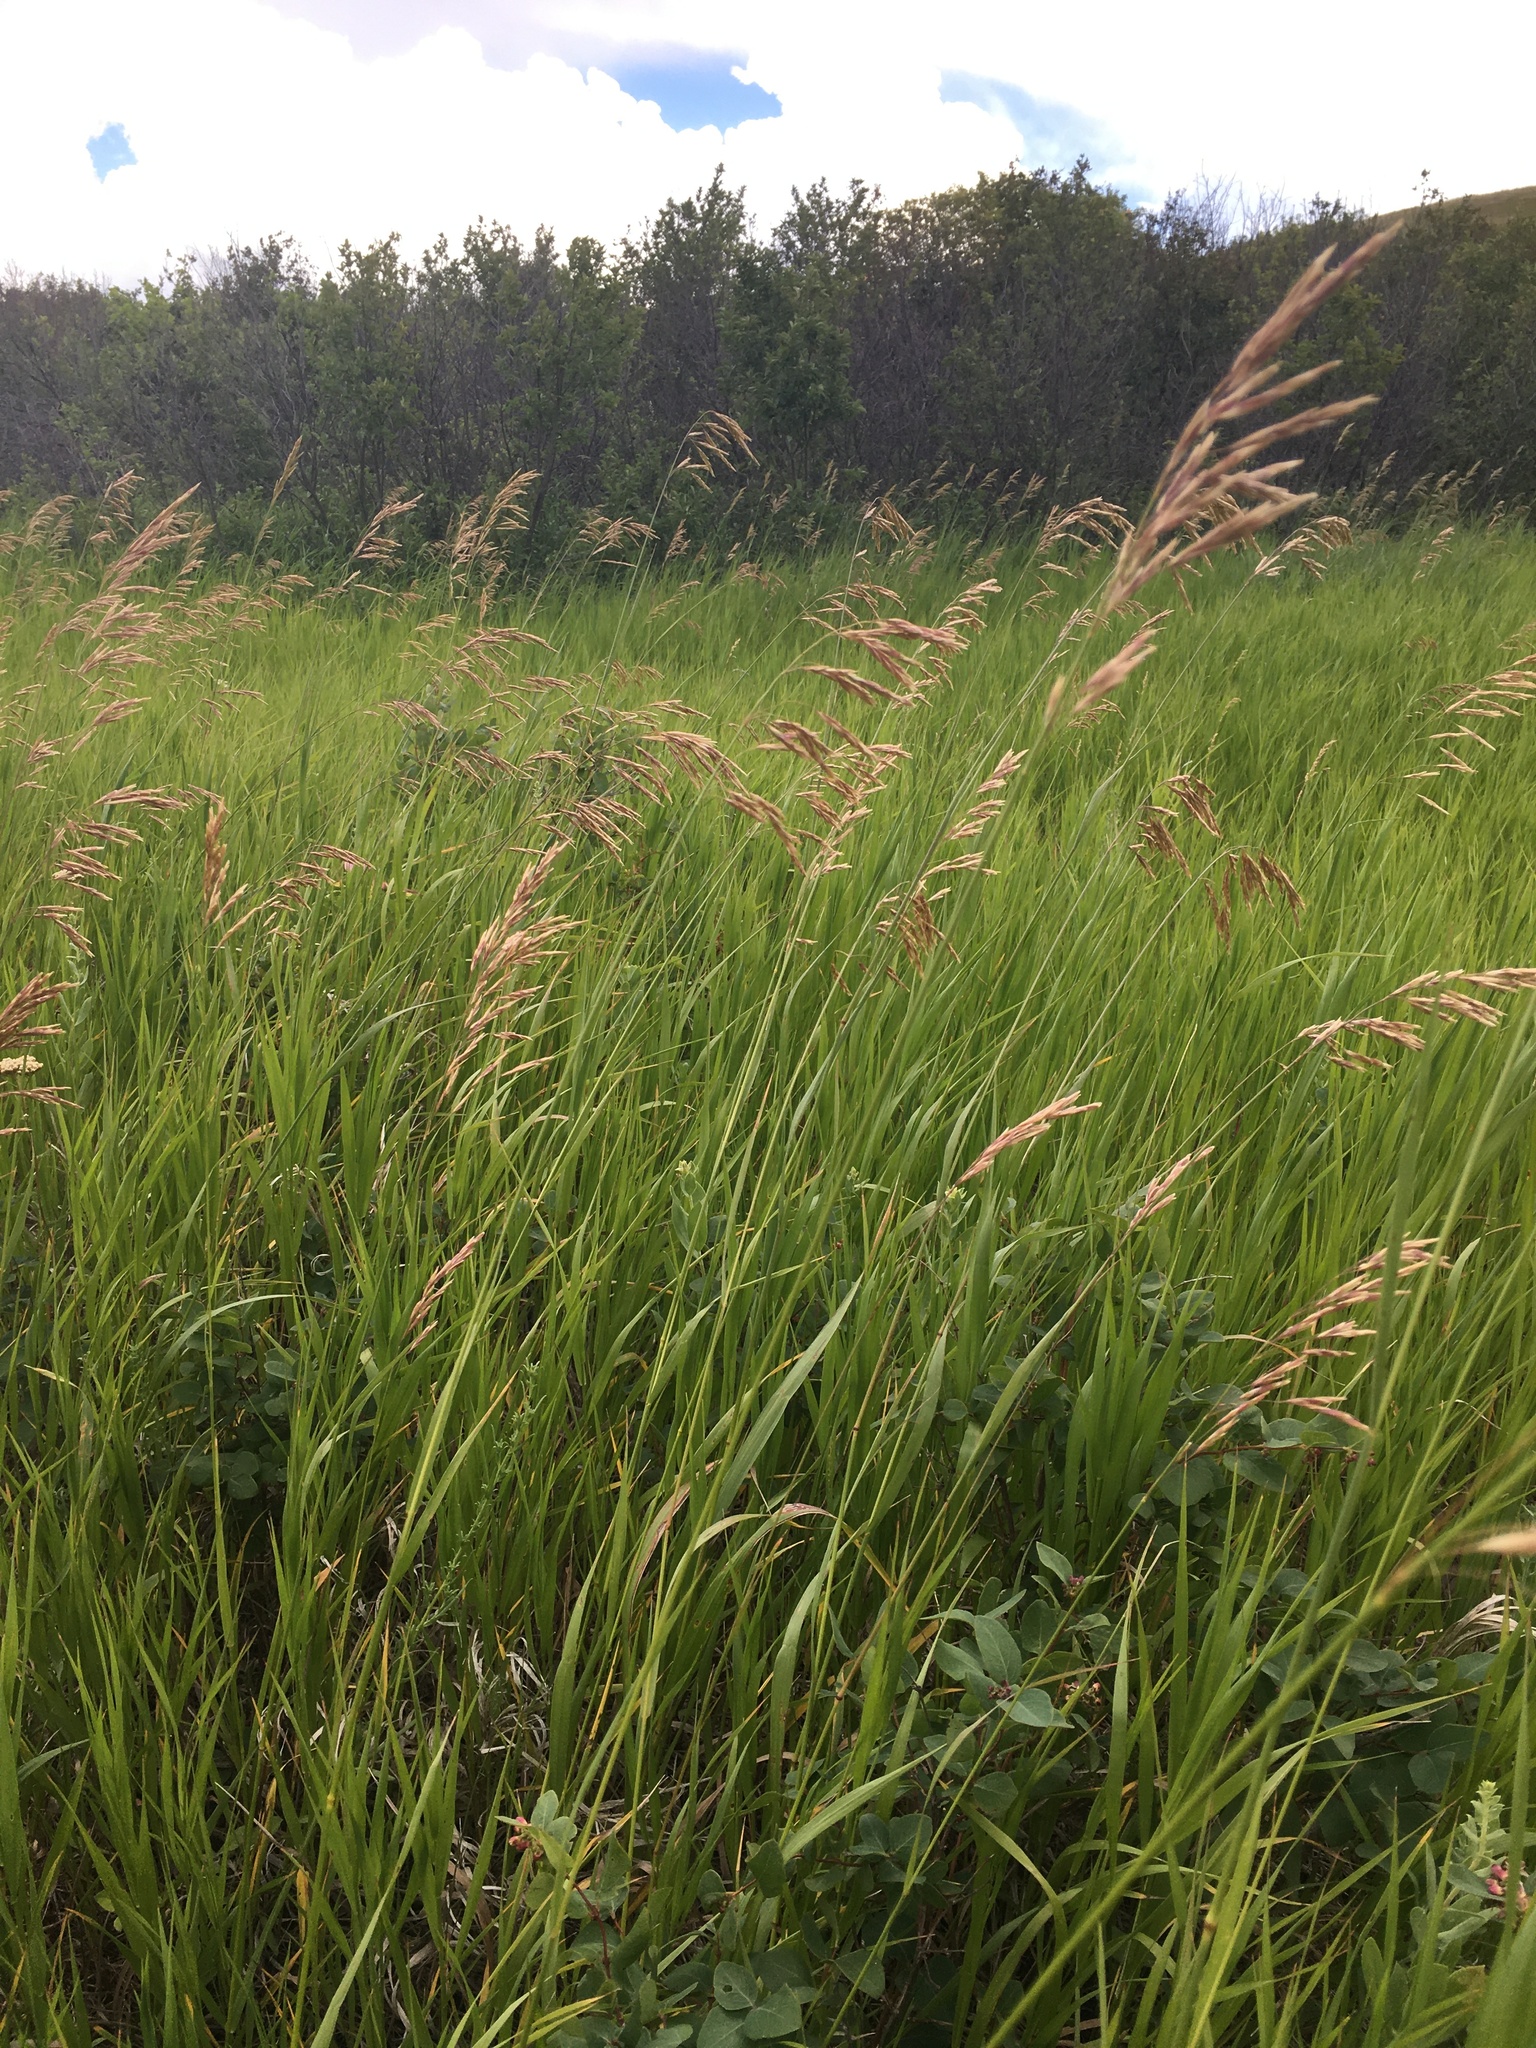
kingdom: Plantae
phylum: Tracheophyta
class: Liliopsida
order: Poales
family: Poaceae
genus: Bromus
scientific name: Bromus inermis
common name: Smooth brome
